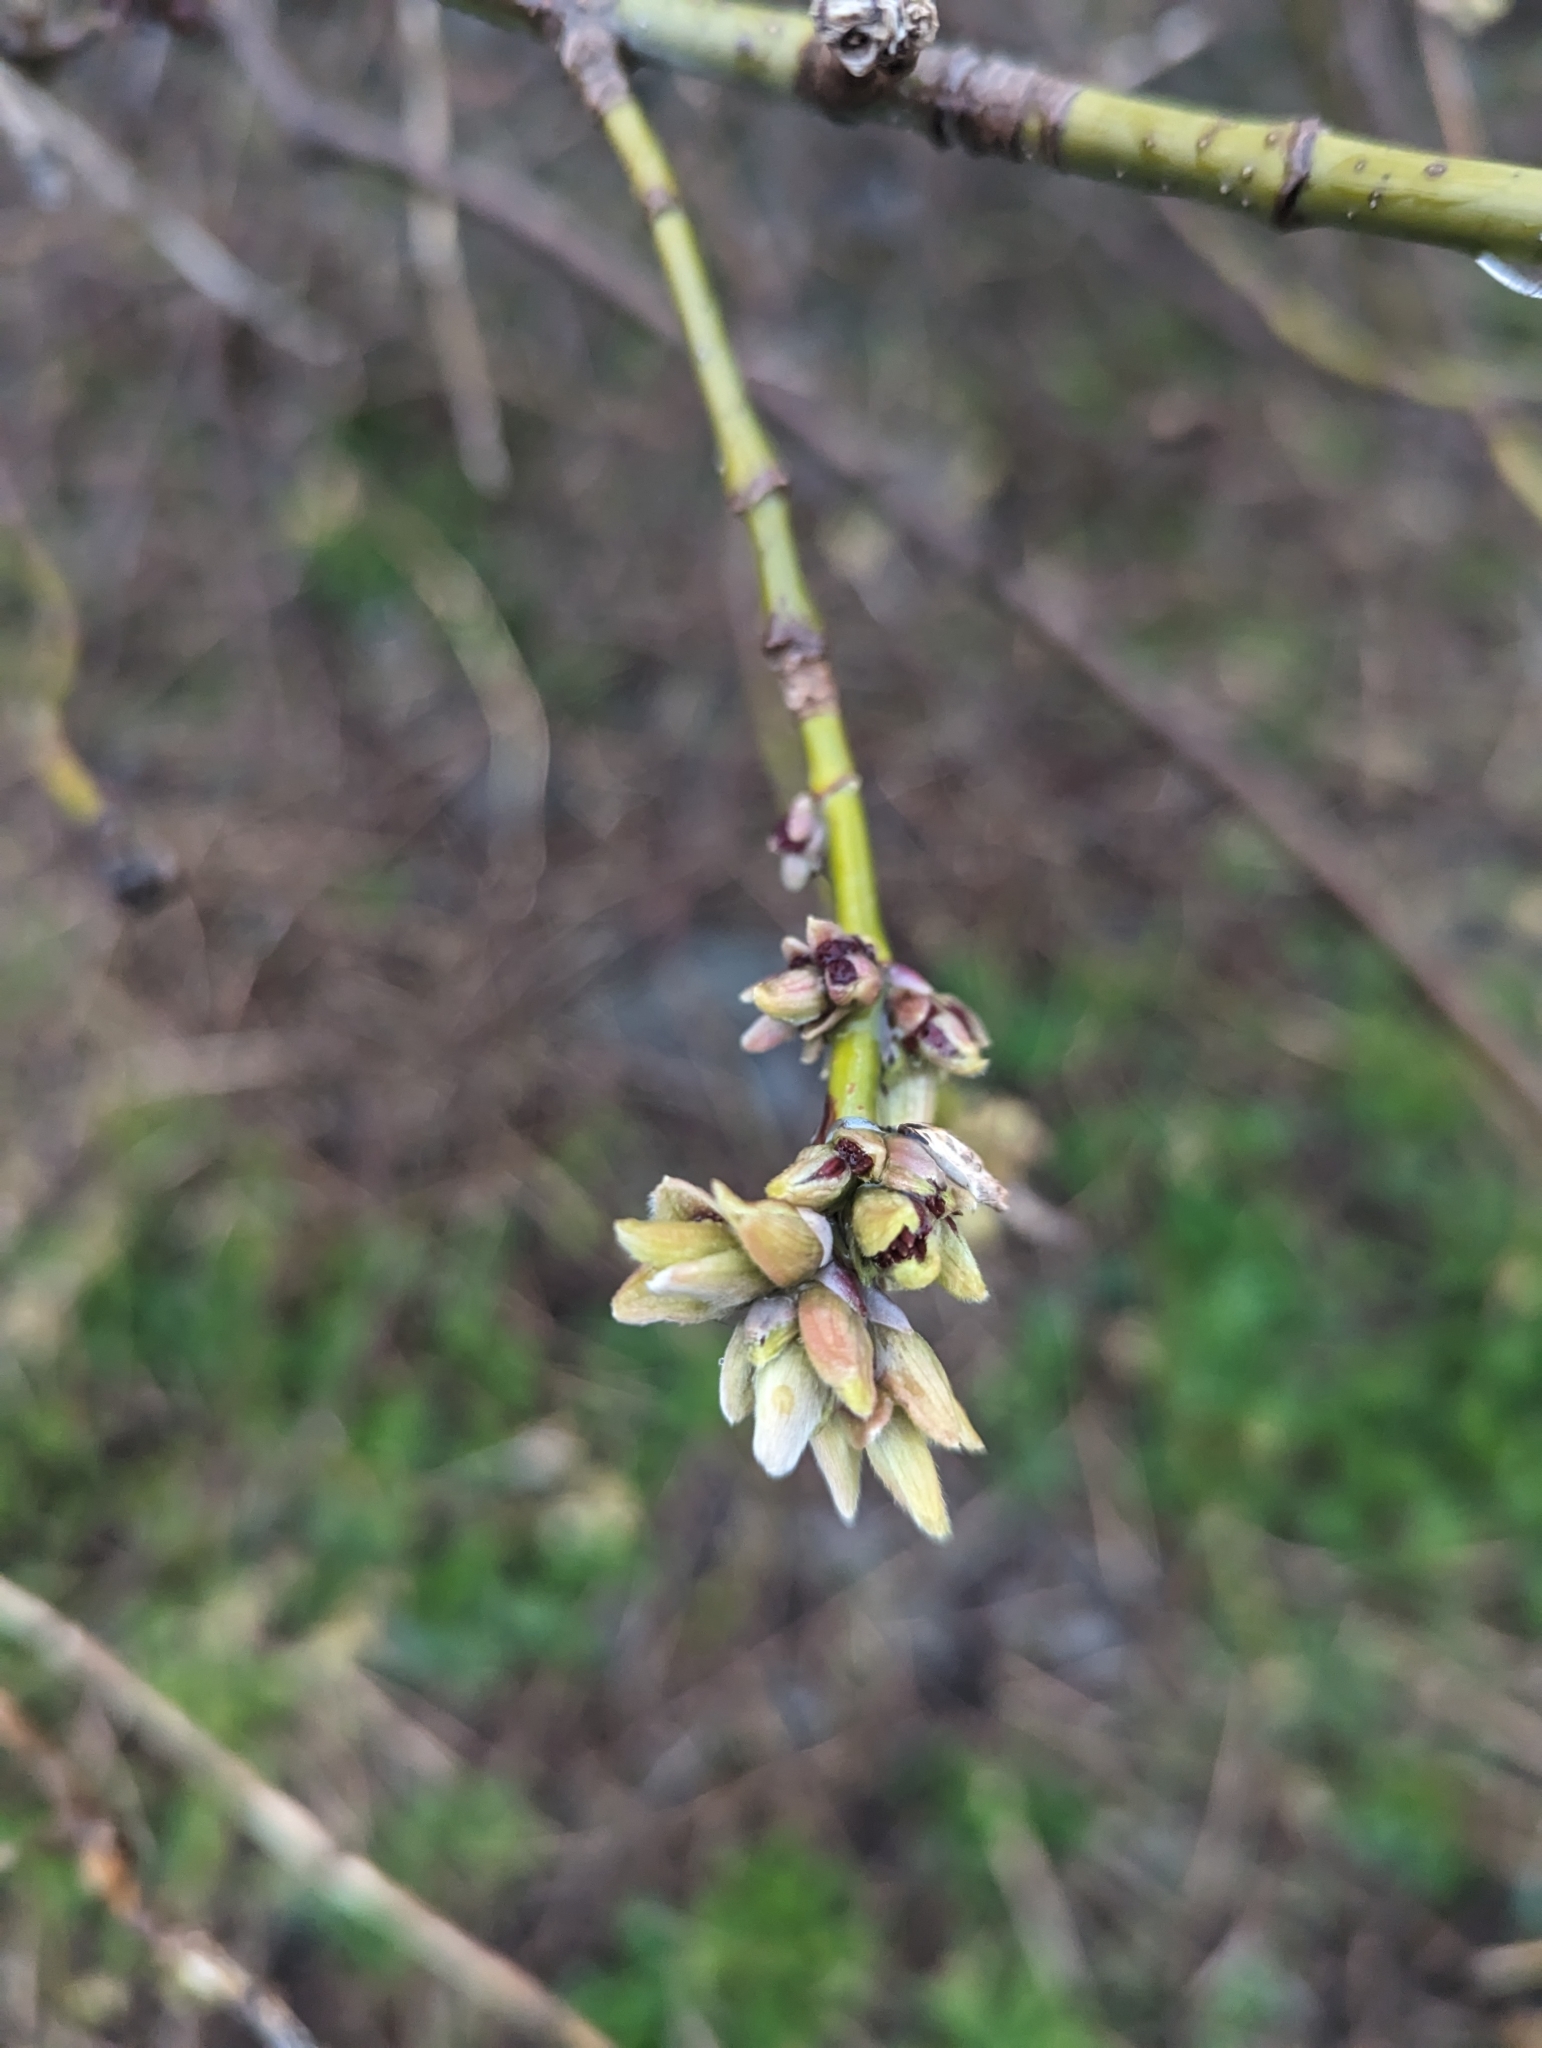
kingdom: Plantae
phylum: Tracheophyta
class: Magnoliopsida
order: Sapindales
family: Sapindaceae
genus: Acer
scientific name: Acer negundo
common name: Ashleaf maple
